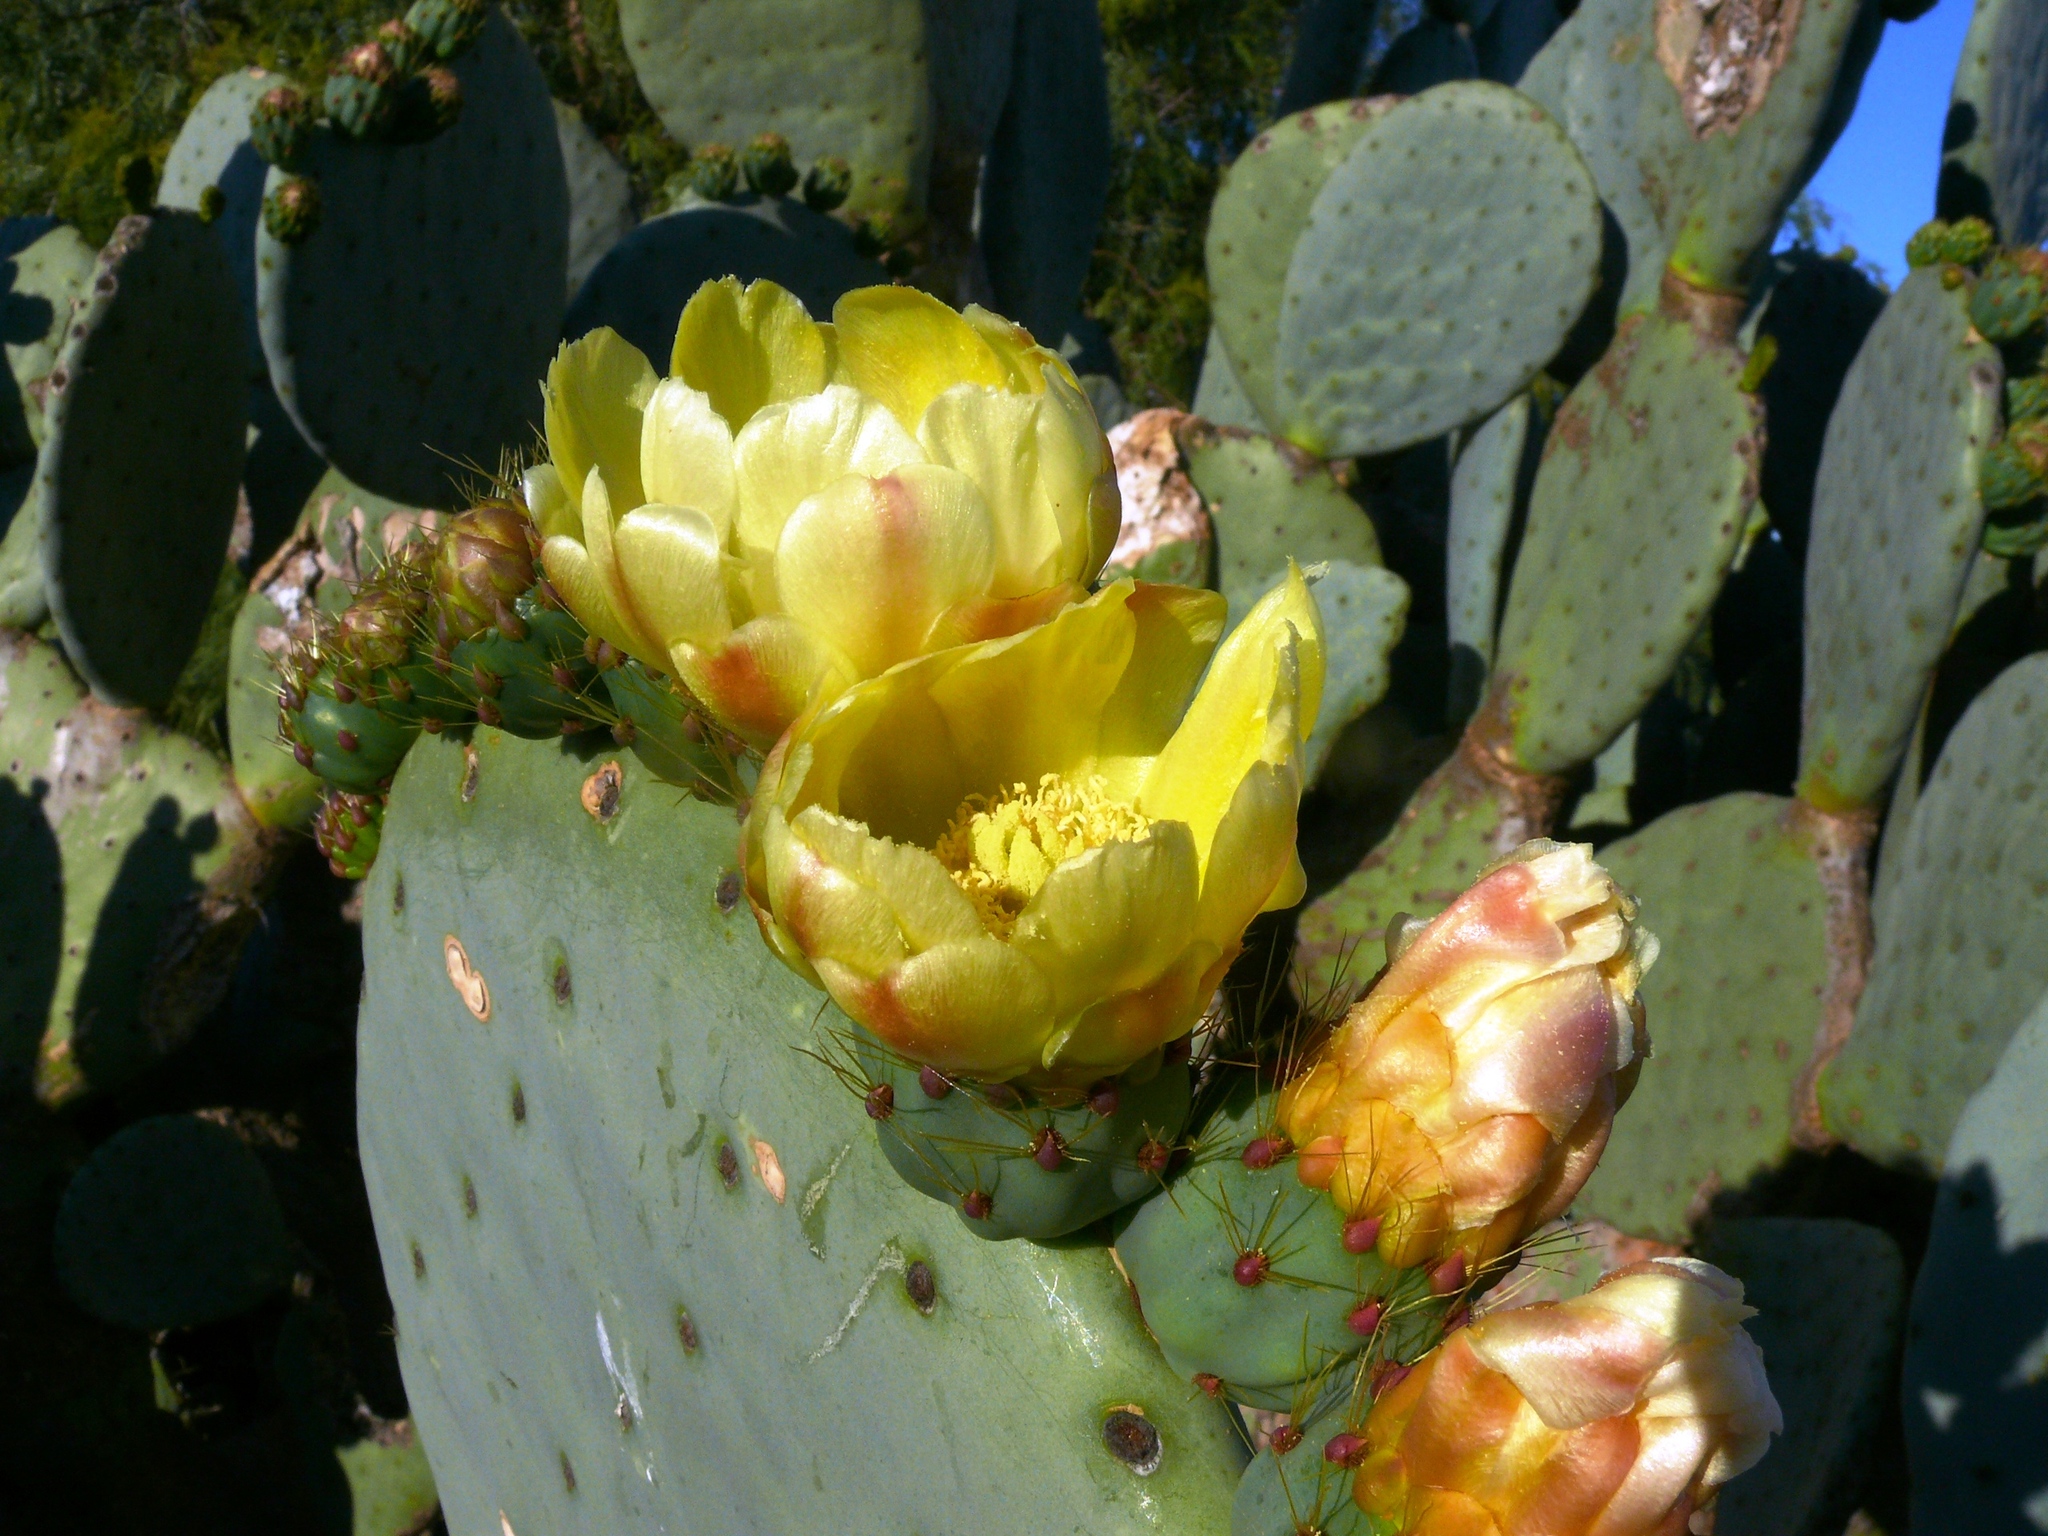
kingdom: Plantae
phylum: Tracheophyta
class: Magnoliopsida
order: Caryophyllales
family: Cactaceae
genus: Opuntia
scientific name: Opuntia robusta
